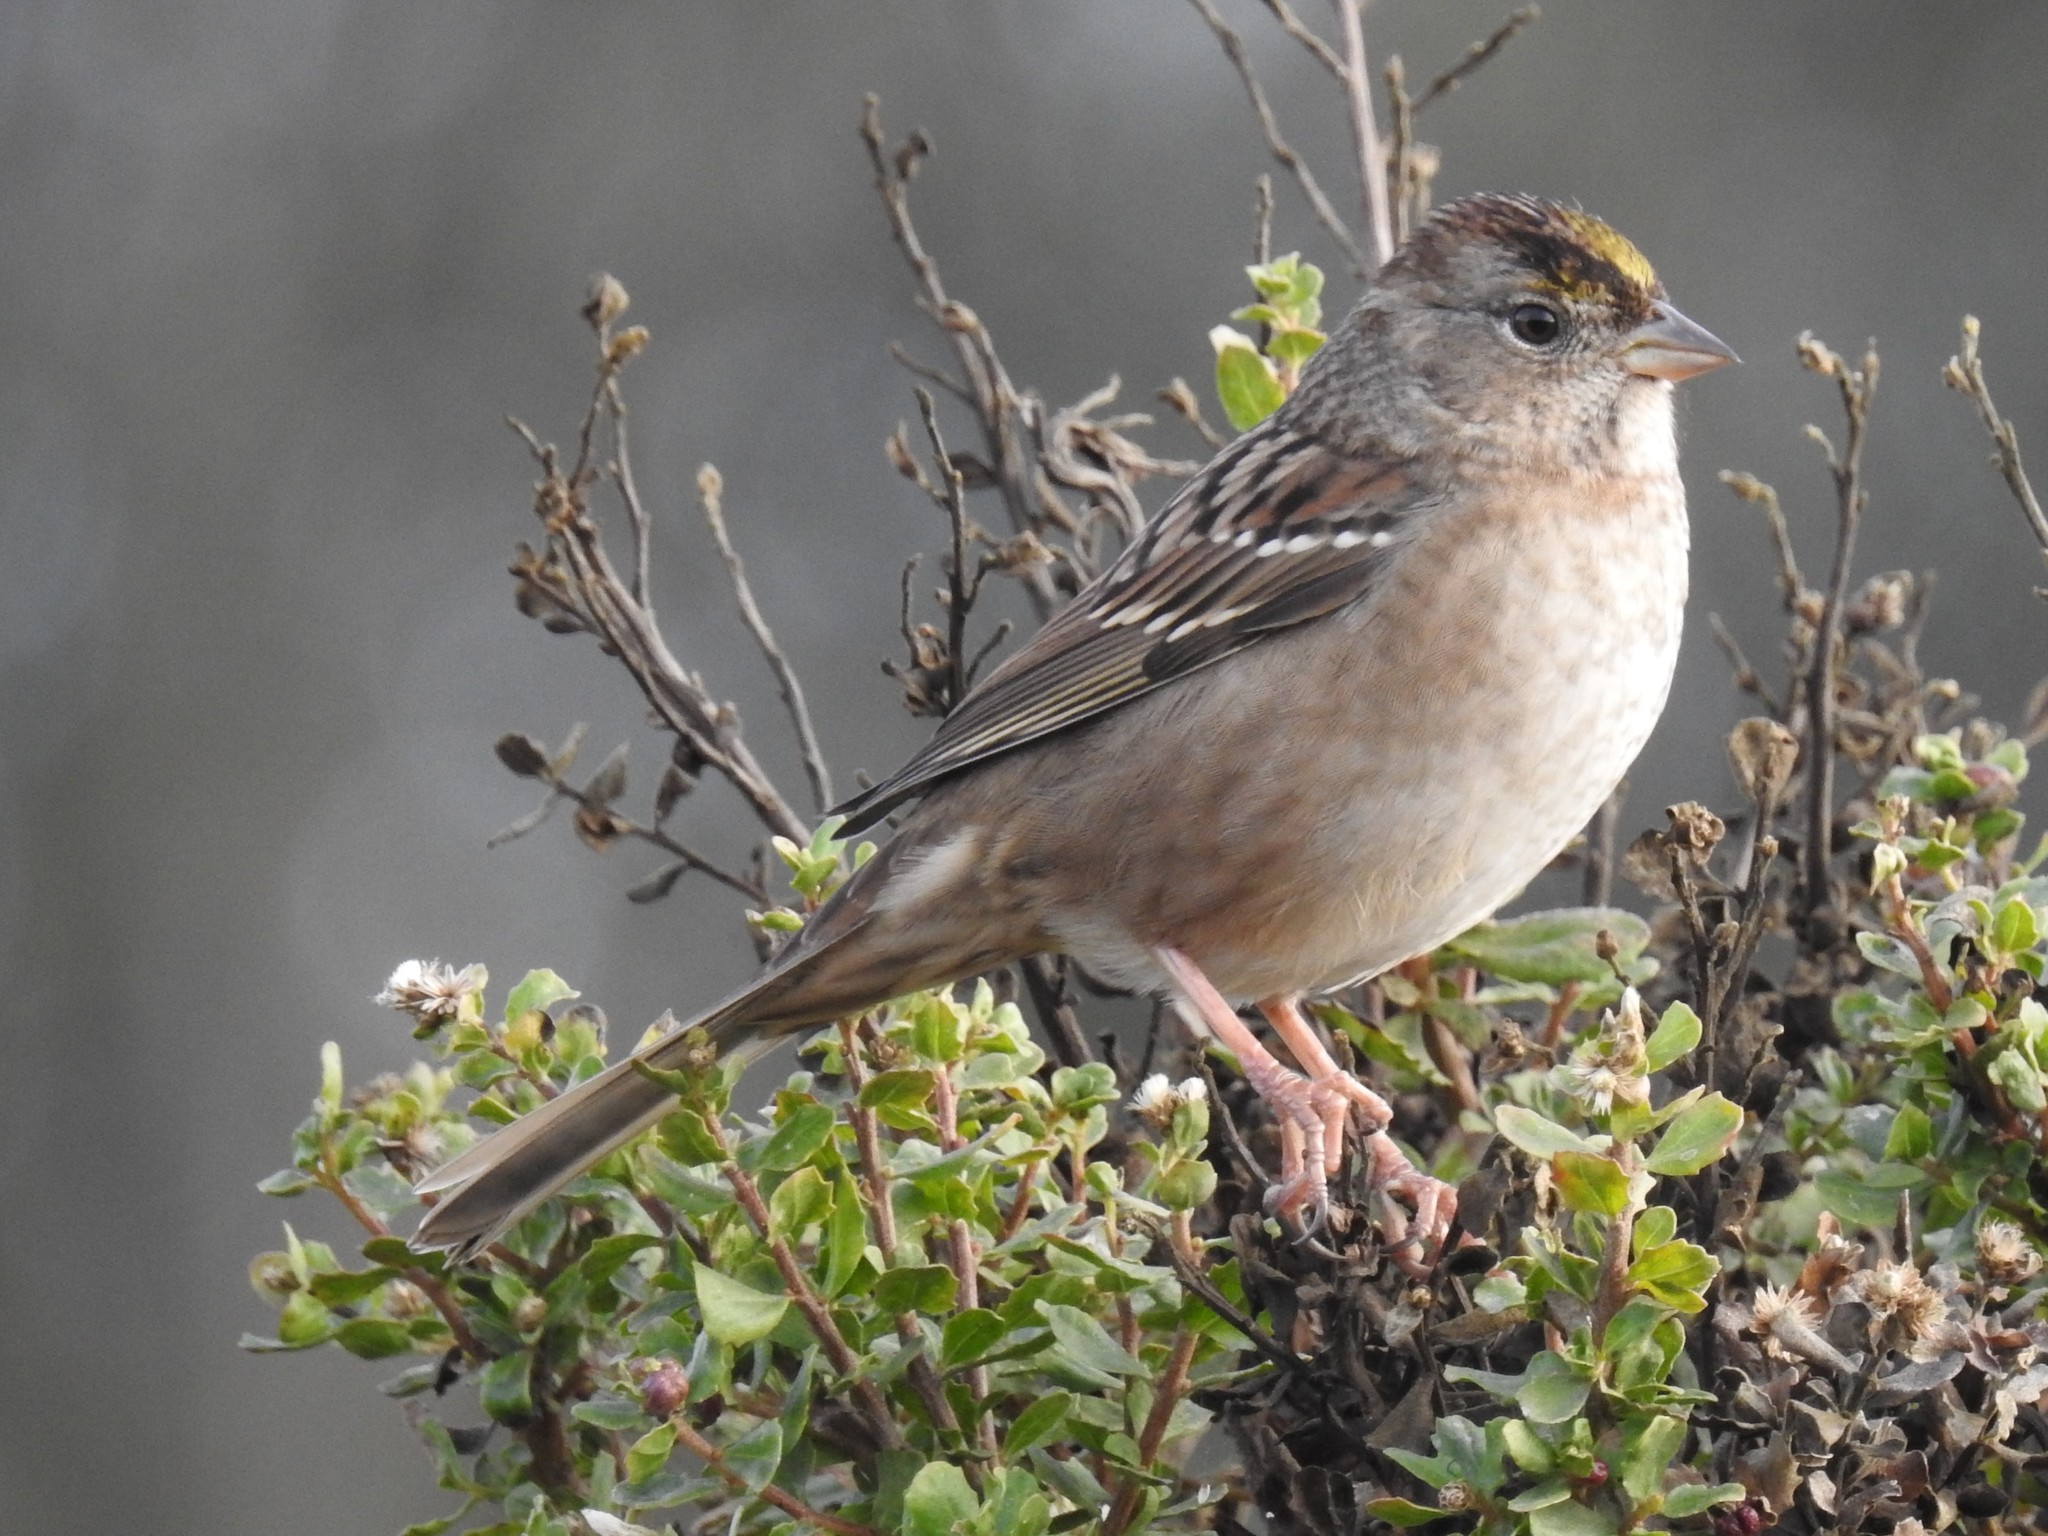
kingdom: Animalia
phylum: Chordata
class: Aves
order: Passeriformes
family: Passerellidae
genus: Zonotrichia
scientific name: Zonotrichia atricapilla
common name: Golden-crowned sparrow
